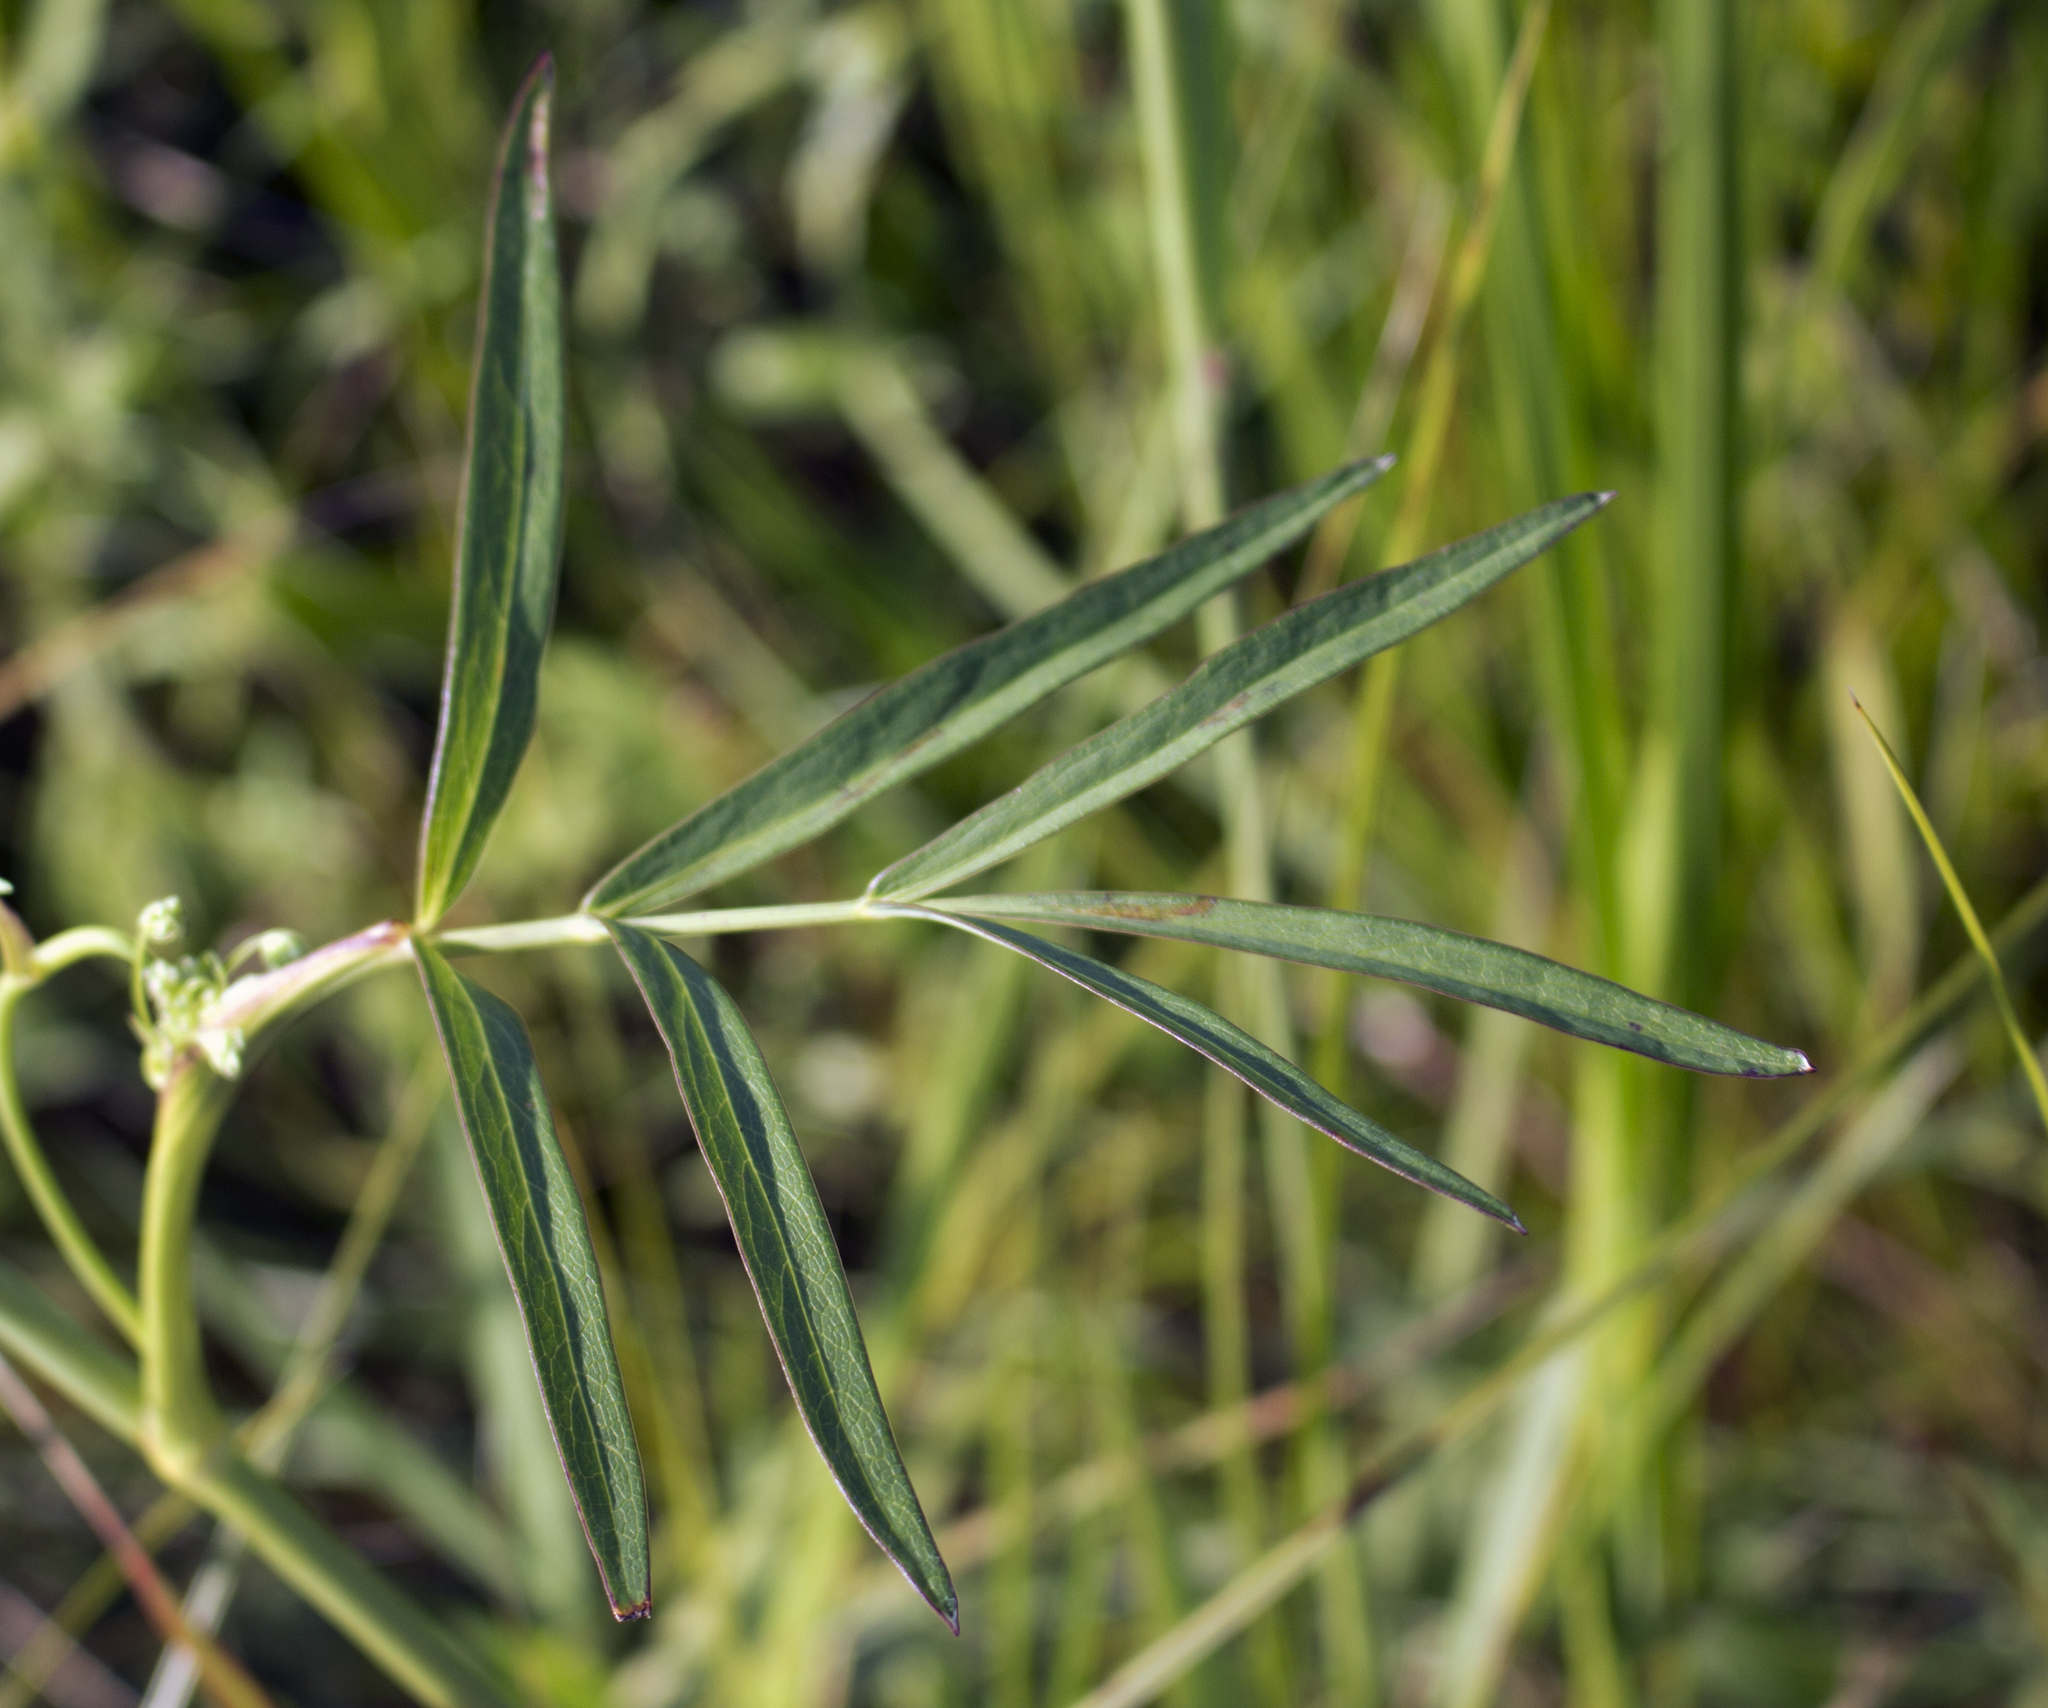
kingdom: Plantae
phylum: Tracheophyta
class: Magnoliopsida
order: Apiales
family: Apiaceae
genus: Oxypolis
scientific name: Oxypolis rigidior
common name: Cowbane
